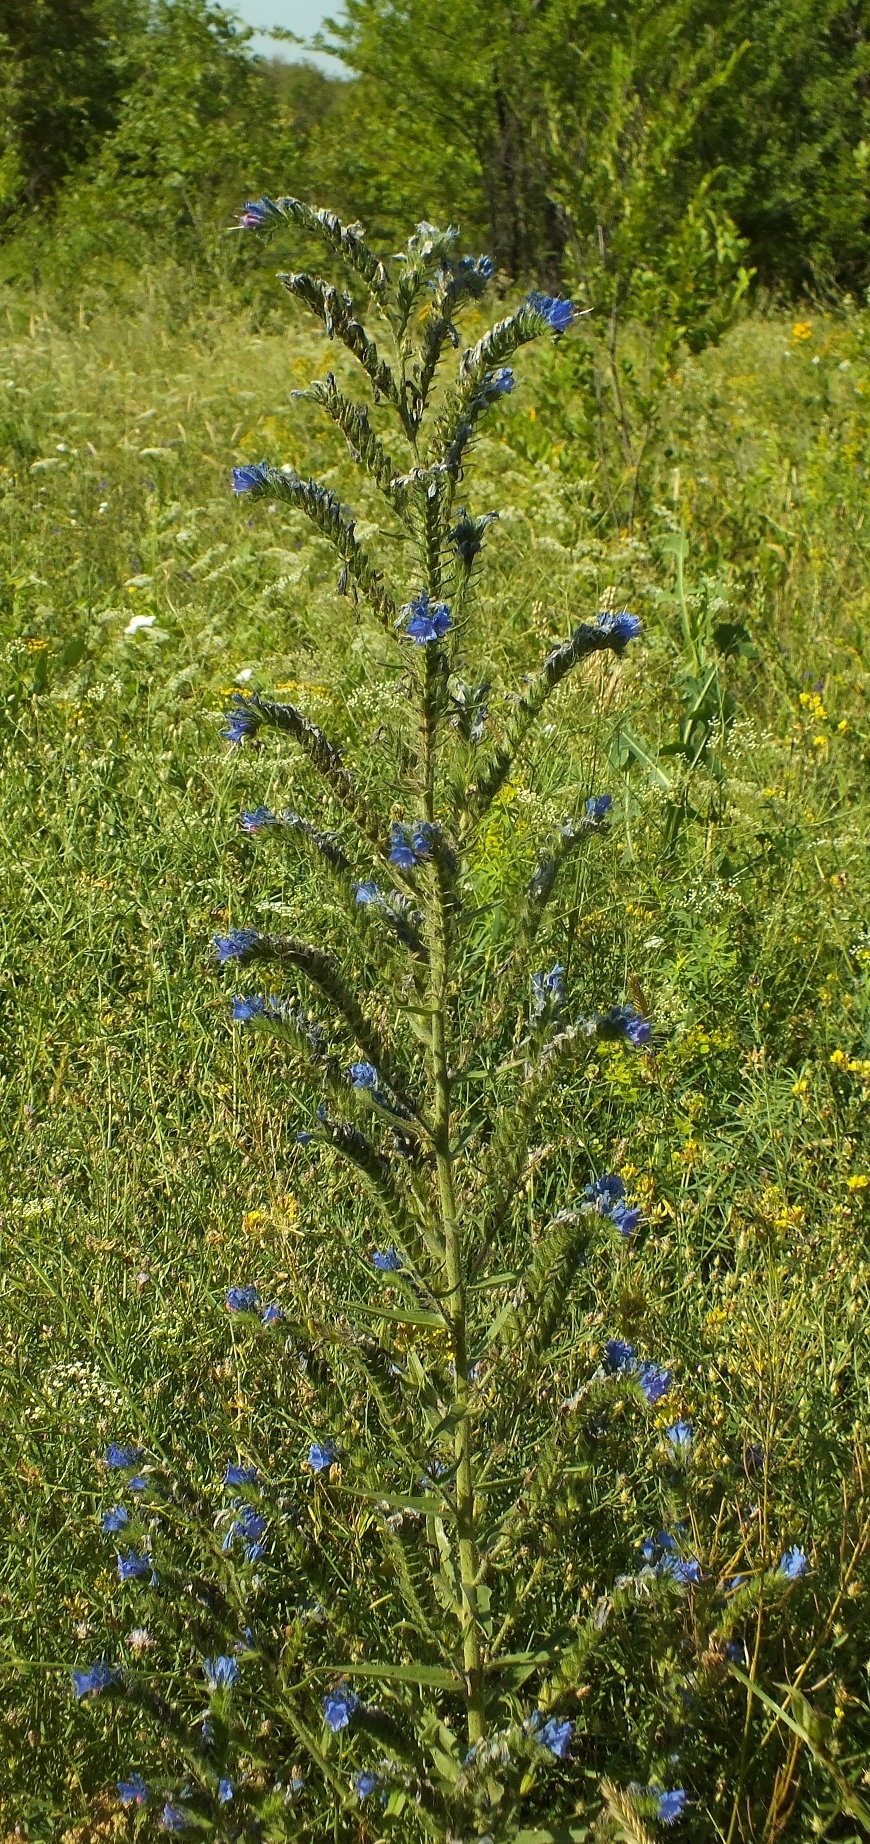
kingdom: Plantae
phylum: Tracheophyta
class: Magnoliopsida
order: Boraginales
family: Boraginaceae
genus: Echium
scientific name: Echium vulgare
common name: Common viper's bugloss
